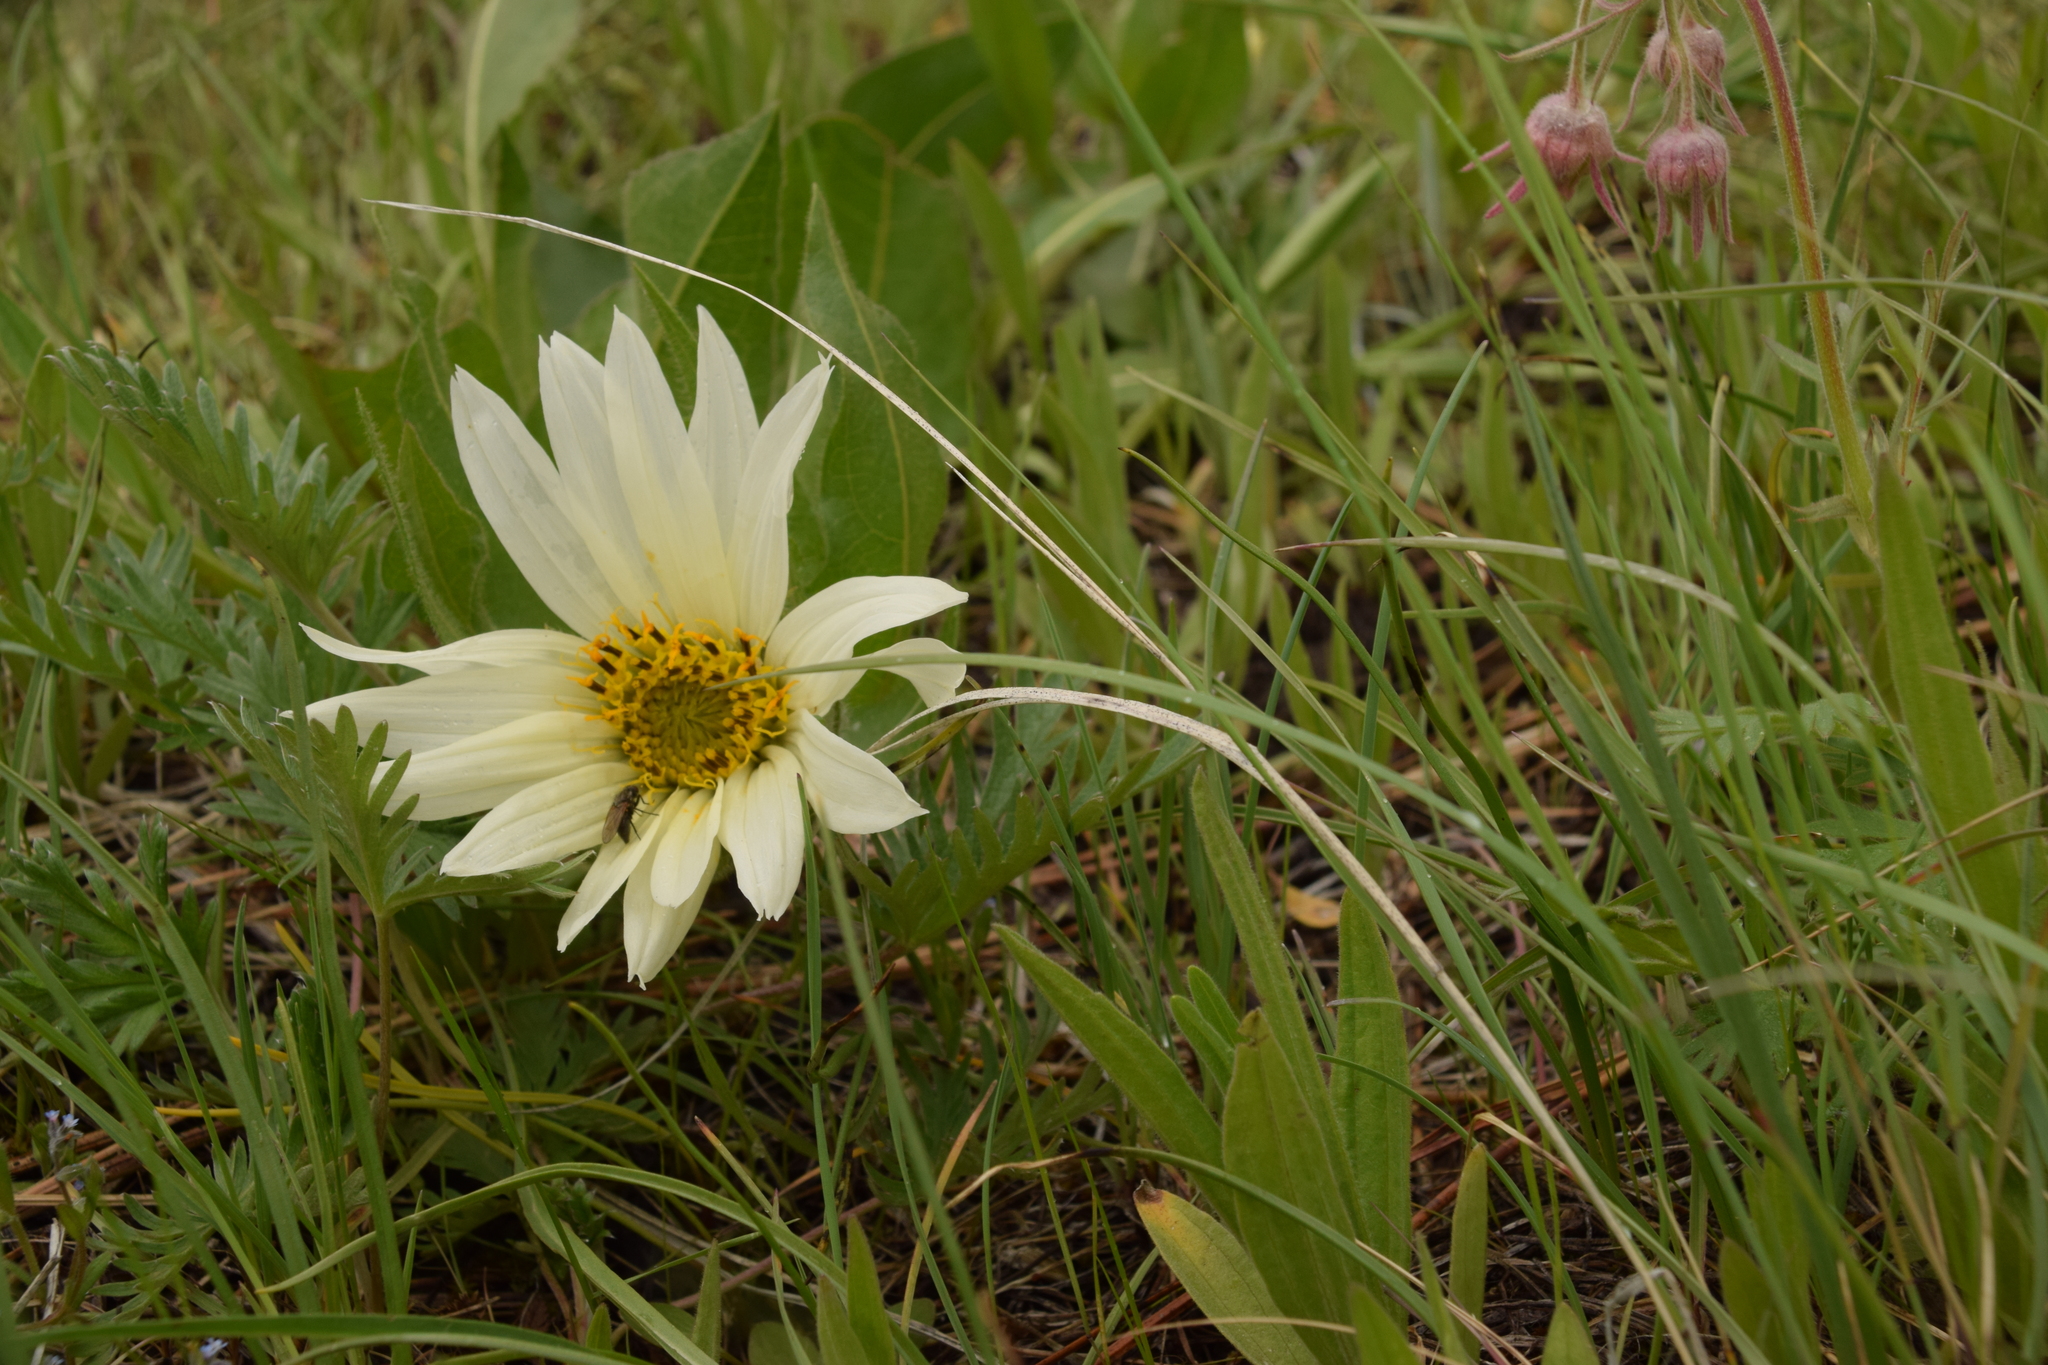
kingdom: Plantae
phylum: Tracheophyta
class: Magnoliopsida
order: Asterales
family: Asteraceae
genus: Wyethia
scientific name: Wyethia helianthoides
